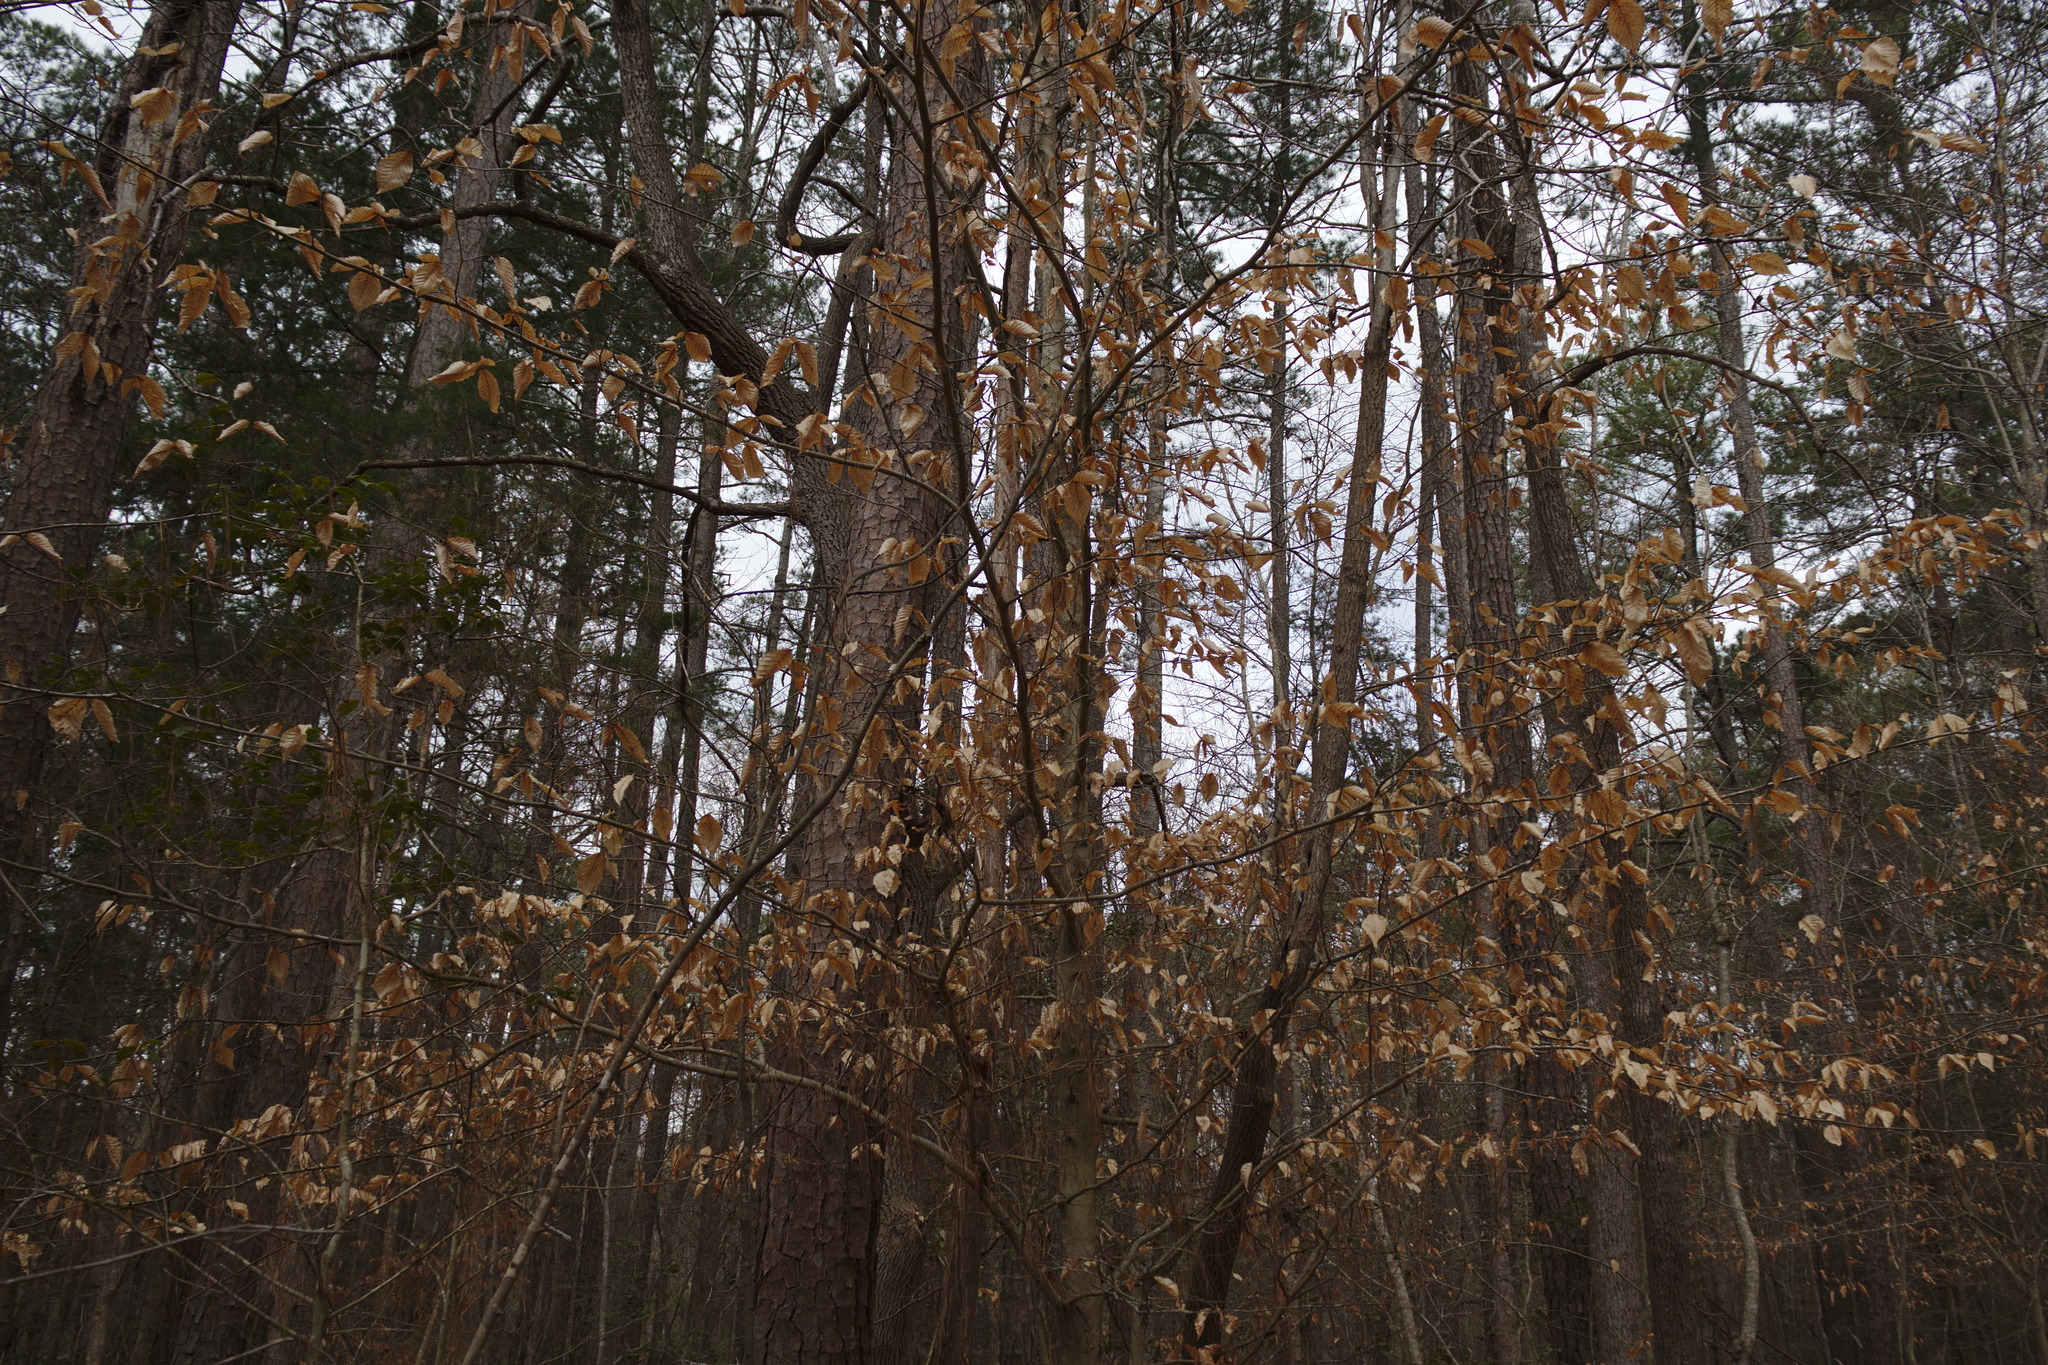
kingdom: Plantae
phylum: Tracheophyta
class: Magnoliopsida
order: Fagales
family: Fagaceae
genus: Fagus
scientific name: Fagus grandifolia
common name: American beech
